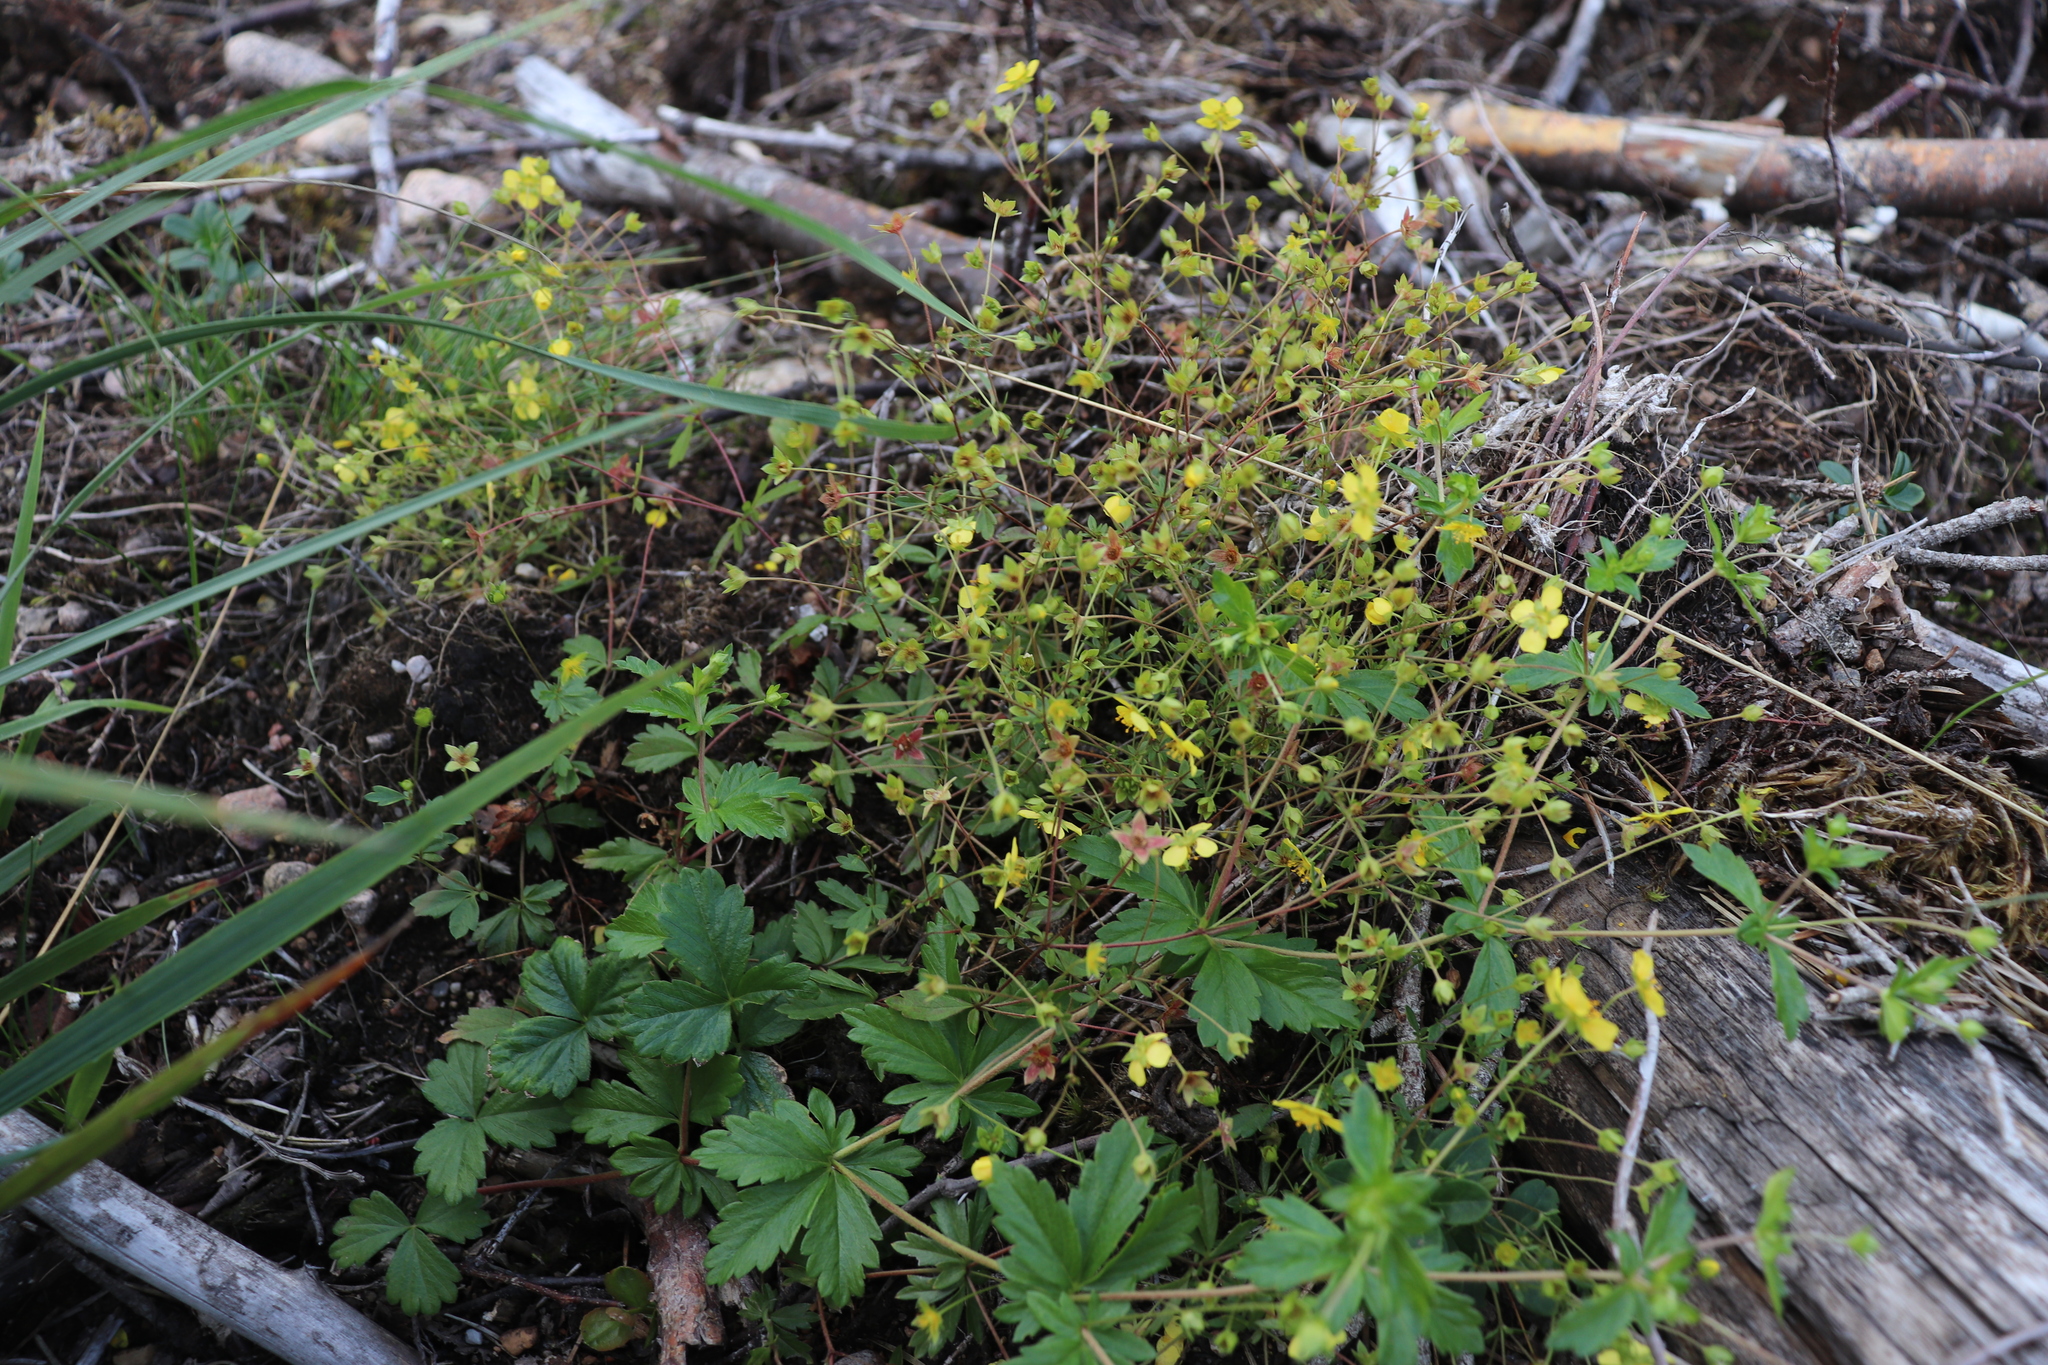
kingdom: Plantae
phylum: Tracheophyta
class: Magnoliopsida
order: Rosales
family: Rosaceae
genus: Potentilla
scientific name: Potentilla erecta
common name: Tormentil
